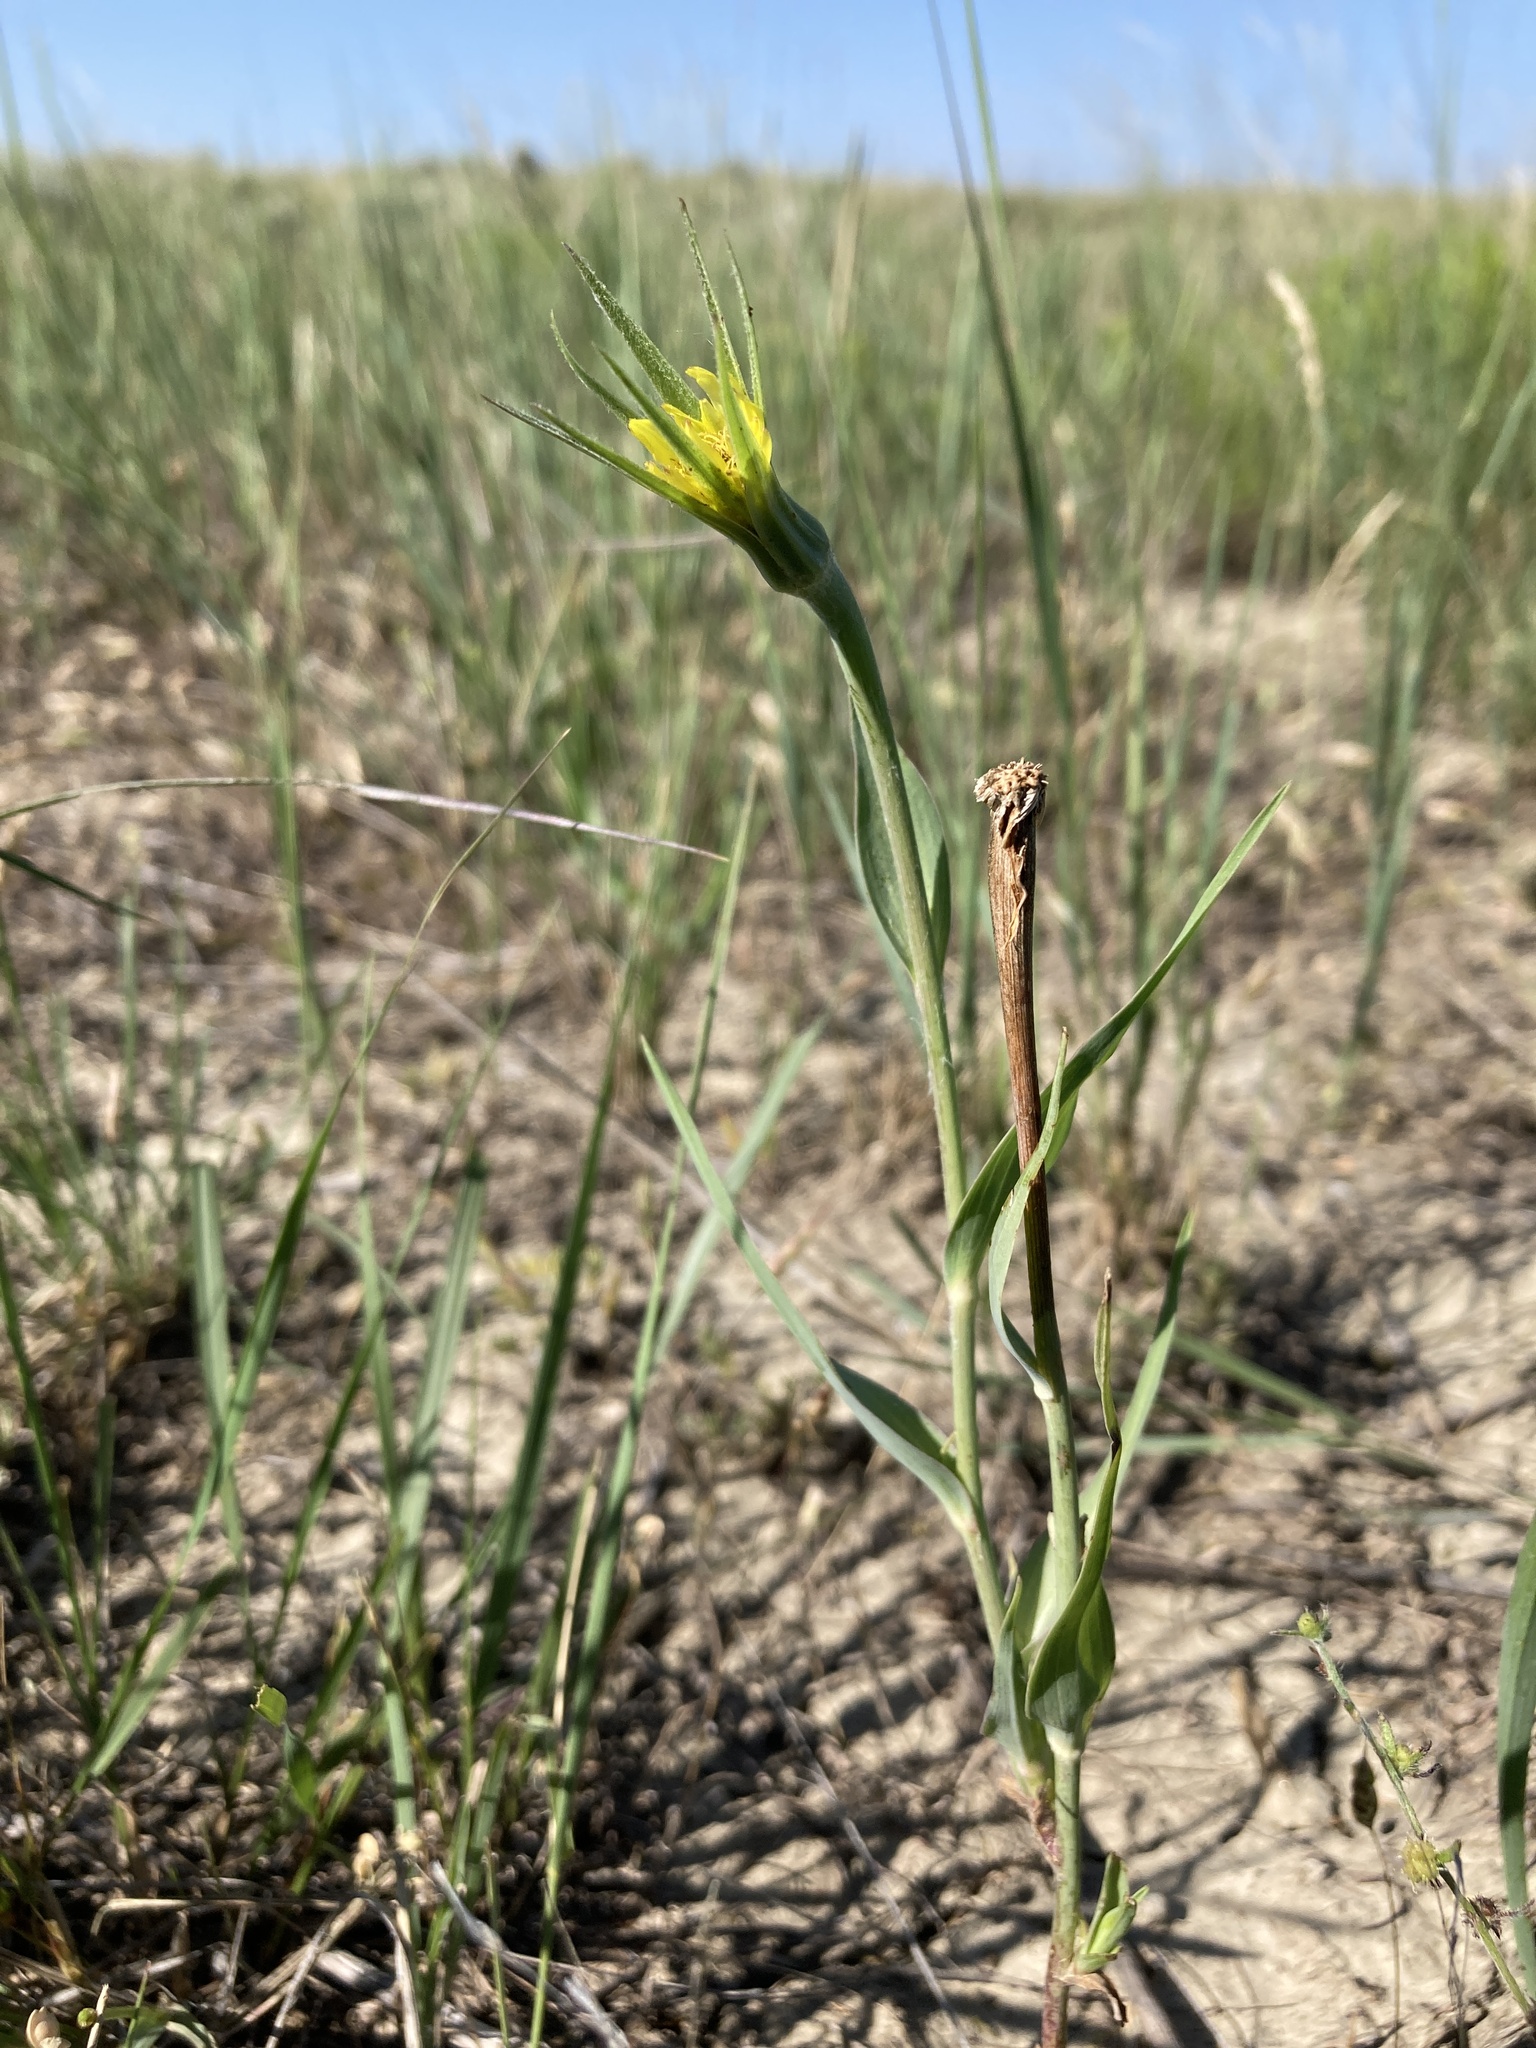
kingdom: Plantae
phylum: Tracheophyta
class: Magnoliopsida
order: Asterales
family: Asteraceae
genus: Tragopogon
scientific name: Tragopogon dubius
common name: Yellow salsify
